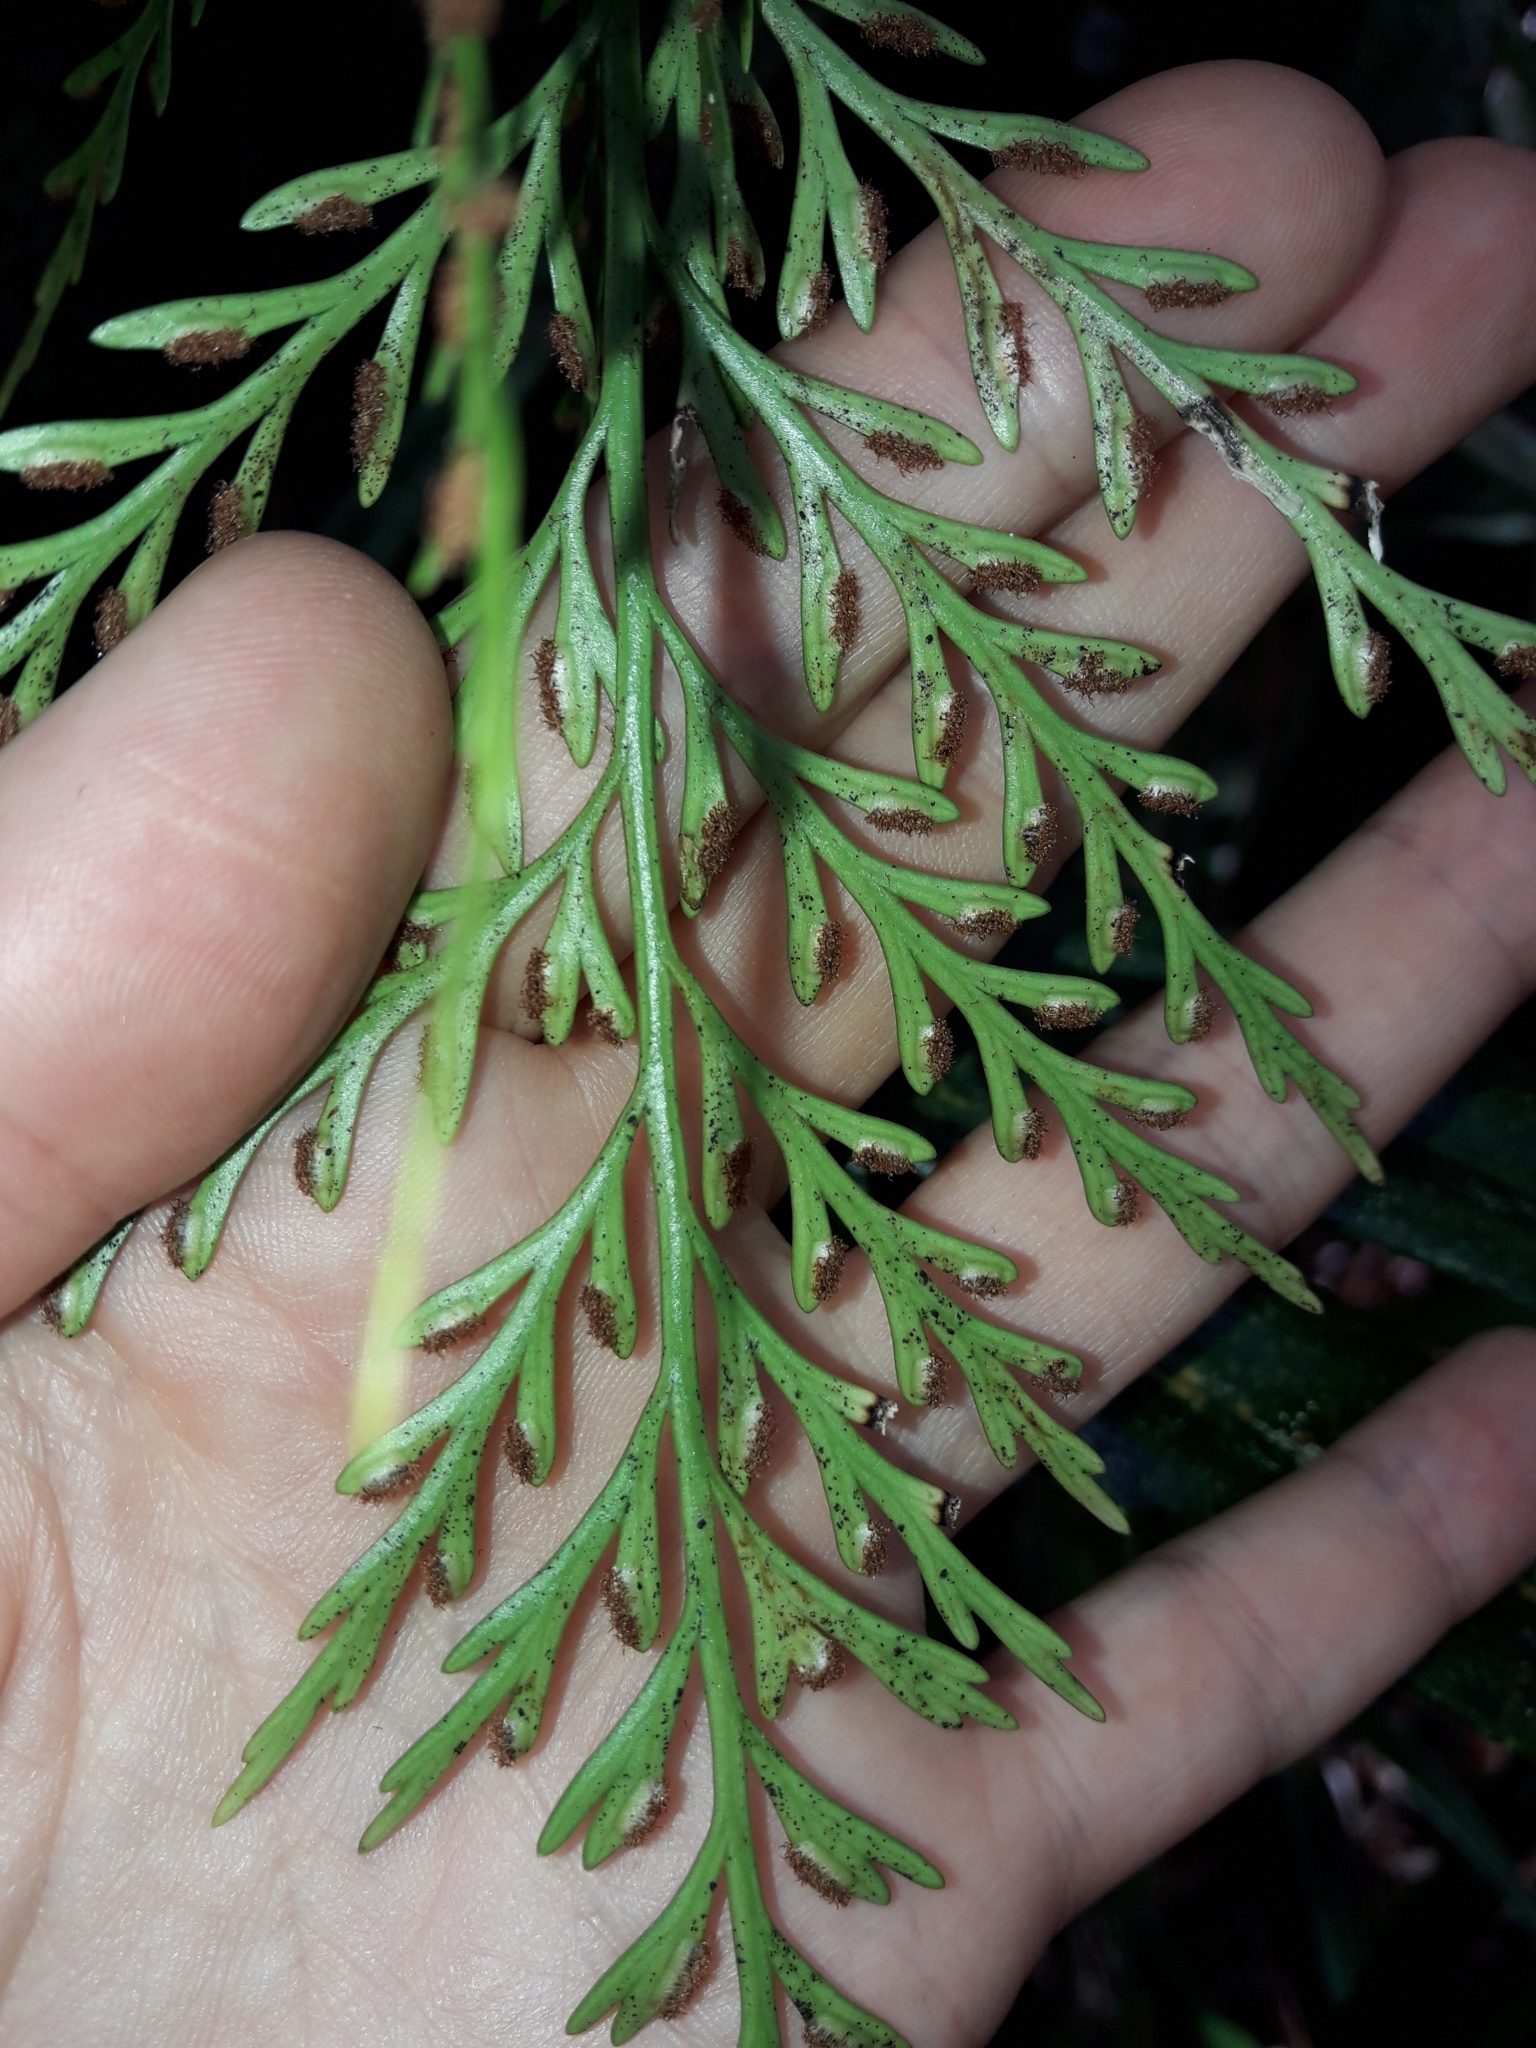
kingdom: Plantae
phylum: Tracheophyta
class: Polypodiopsida
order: Polypodiales
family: Aspleniaceae
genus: Asplenium
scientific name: Asplenium subflexuosum
